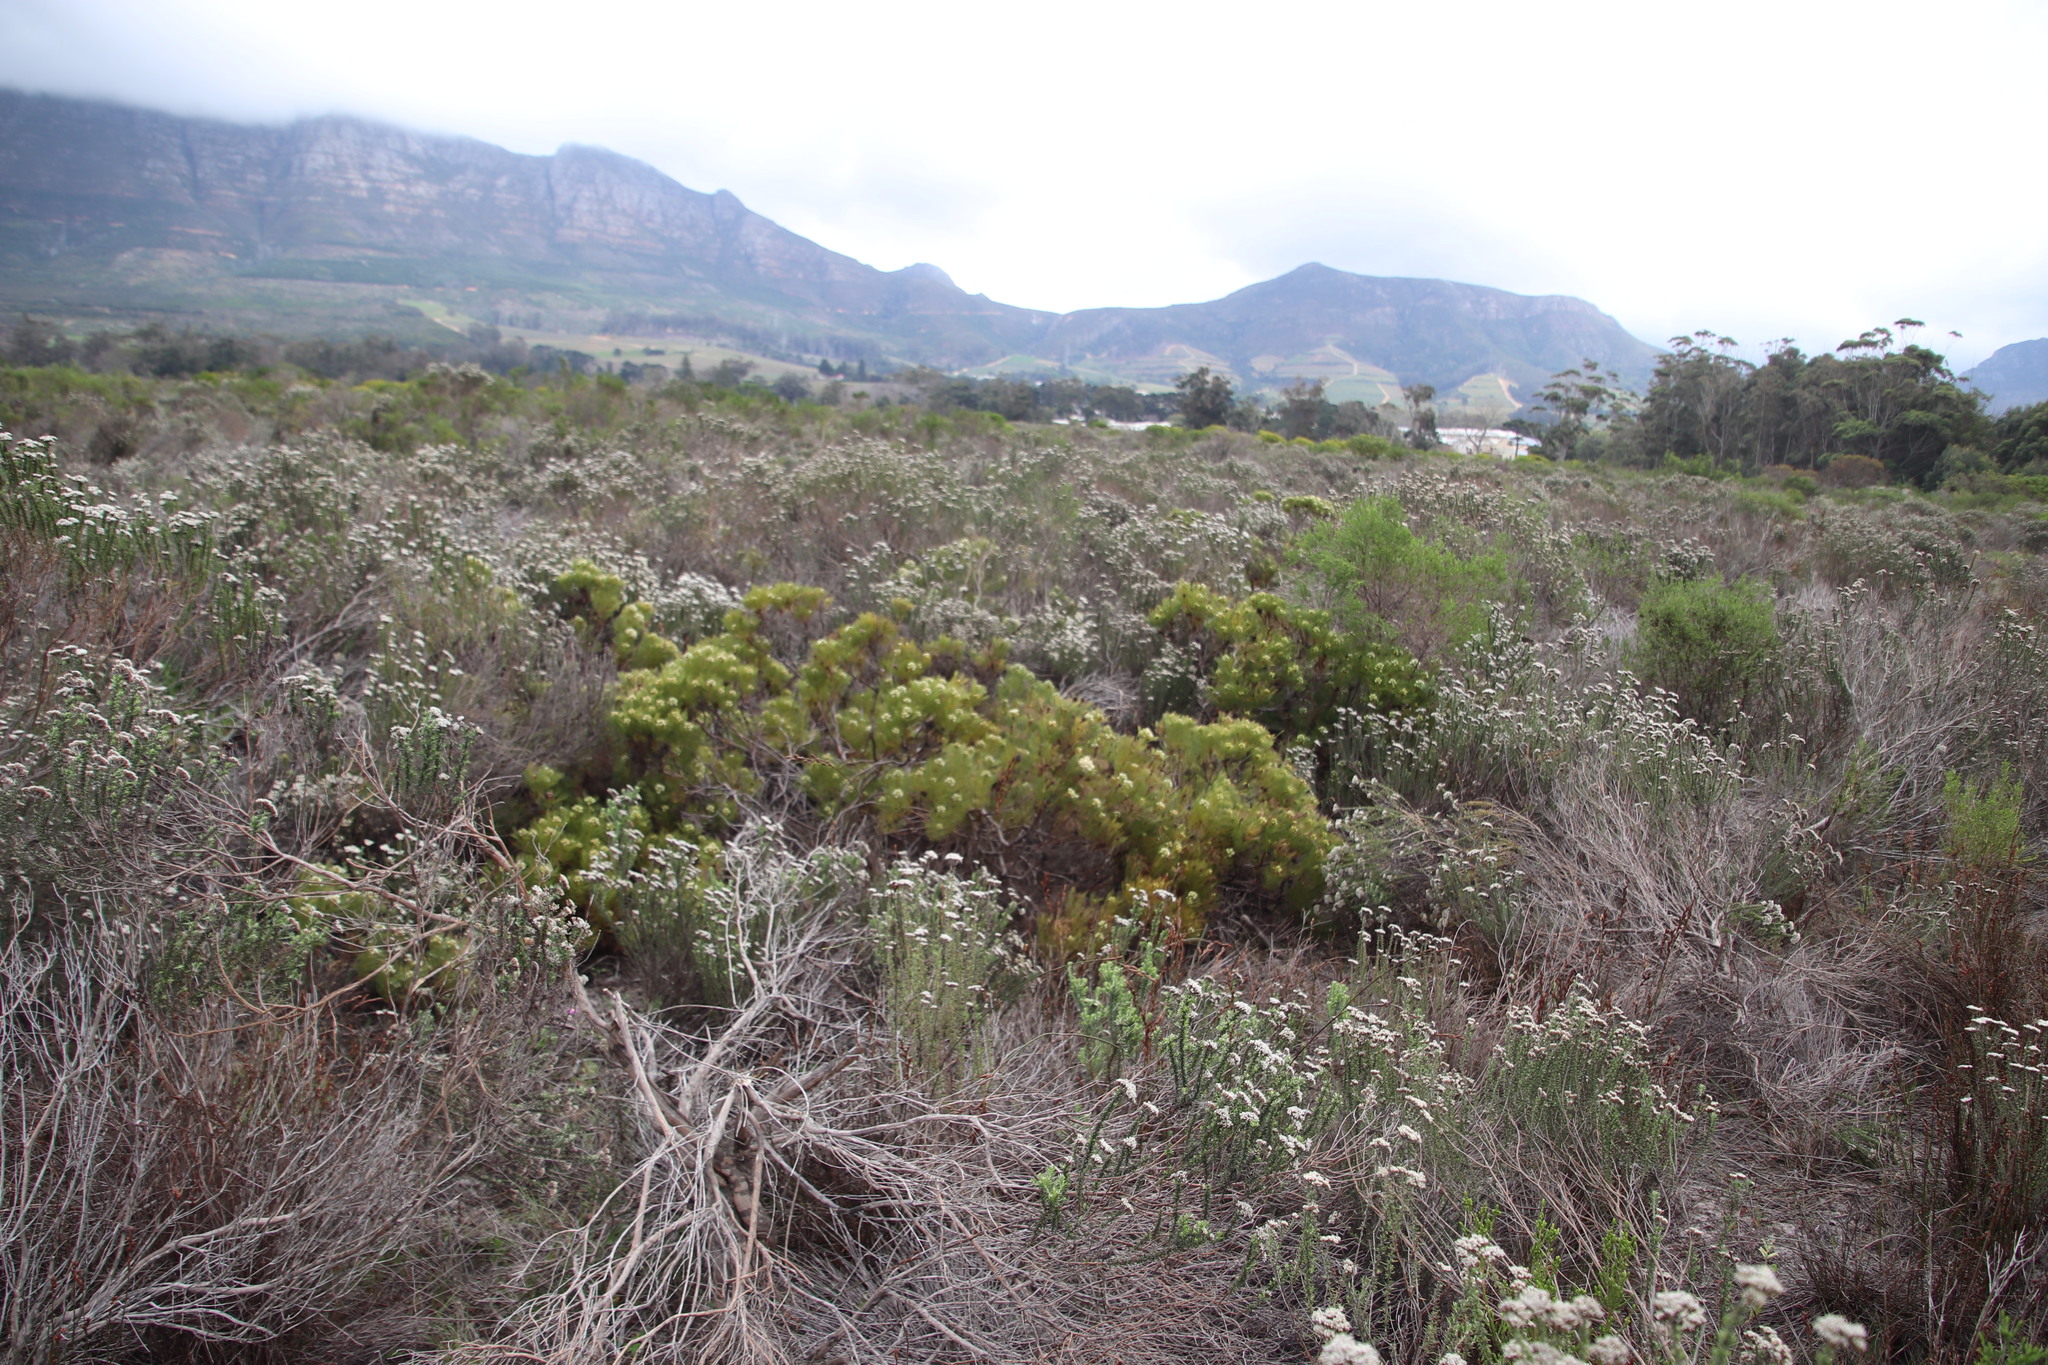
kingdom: Plantae
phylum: Tracheophyta
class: Magnoliopsida
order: Proteales
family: Proteaceae
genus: Serruria
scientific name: Serruria glomerata
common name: Cluster spiderhead
